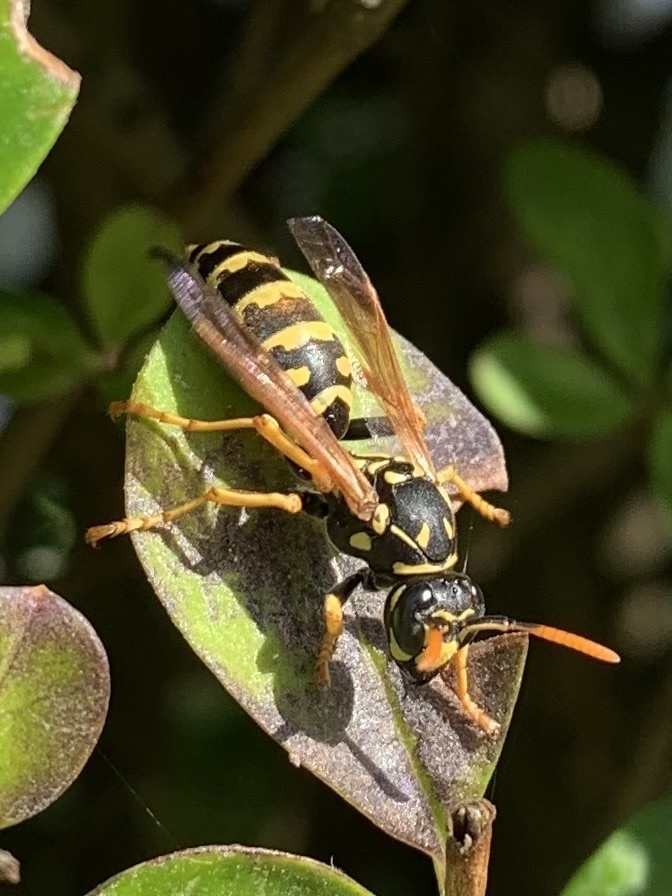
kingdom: Animalia
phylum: Arthropoda
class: Insecta
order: Hymenoptera
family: Eumenidae
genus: Polistes
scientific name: Polistes dominula
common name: Paper wasp
